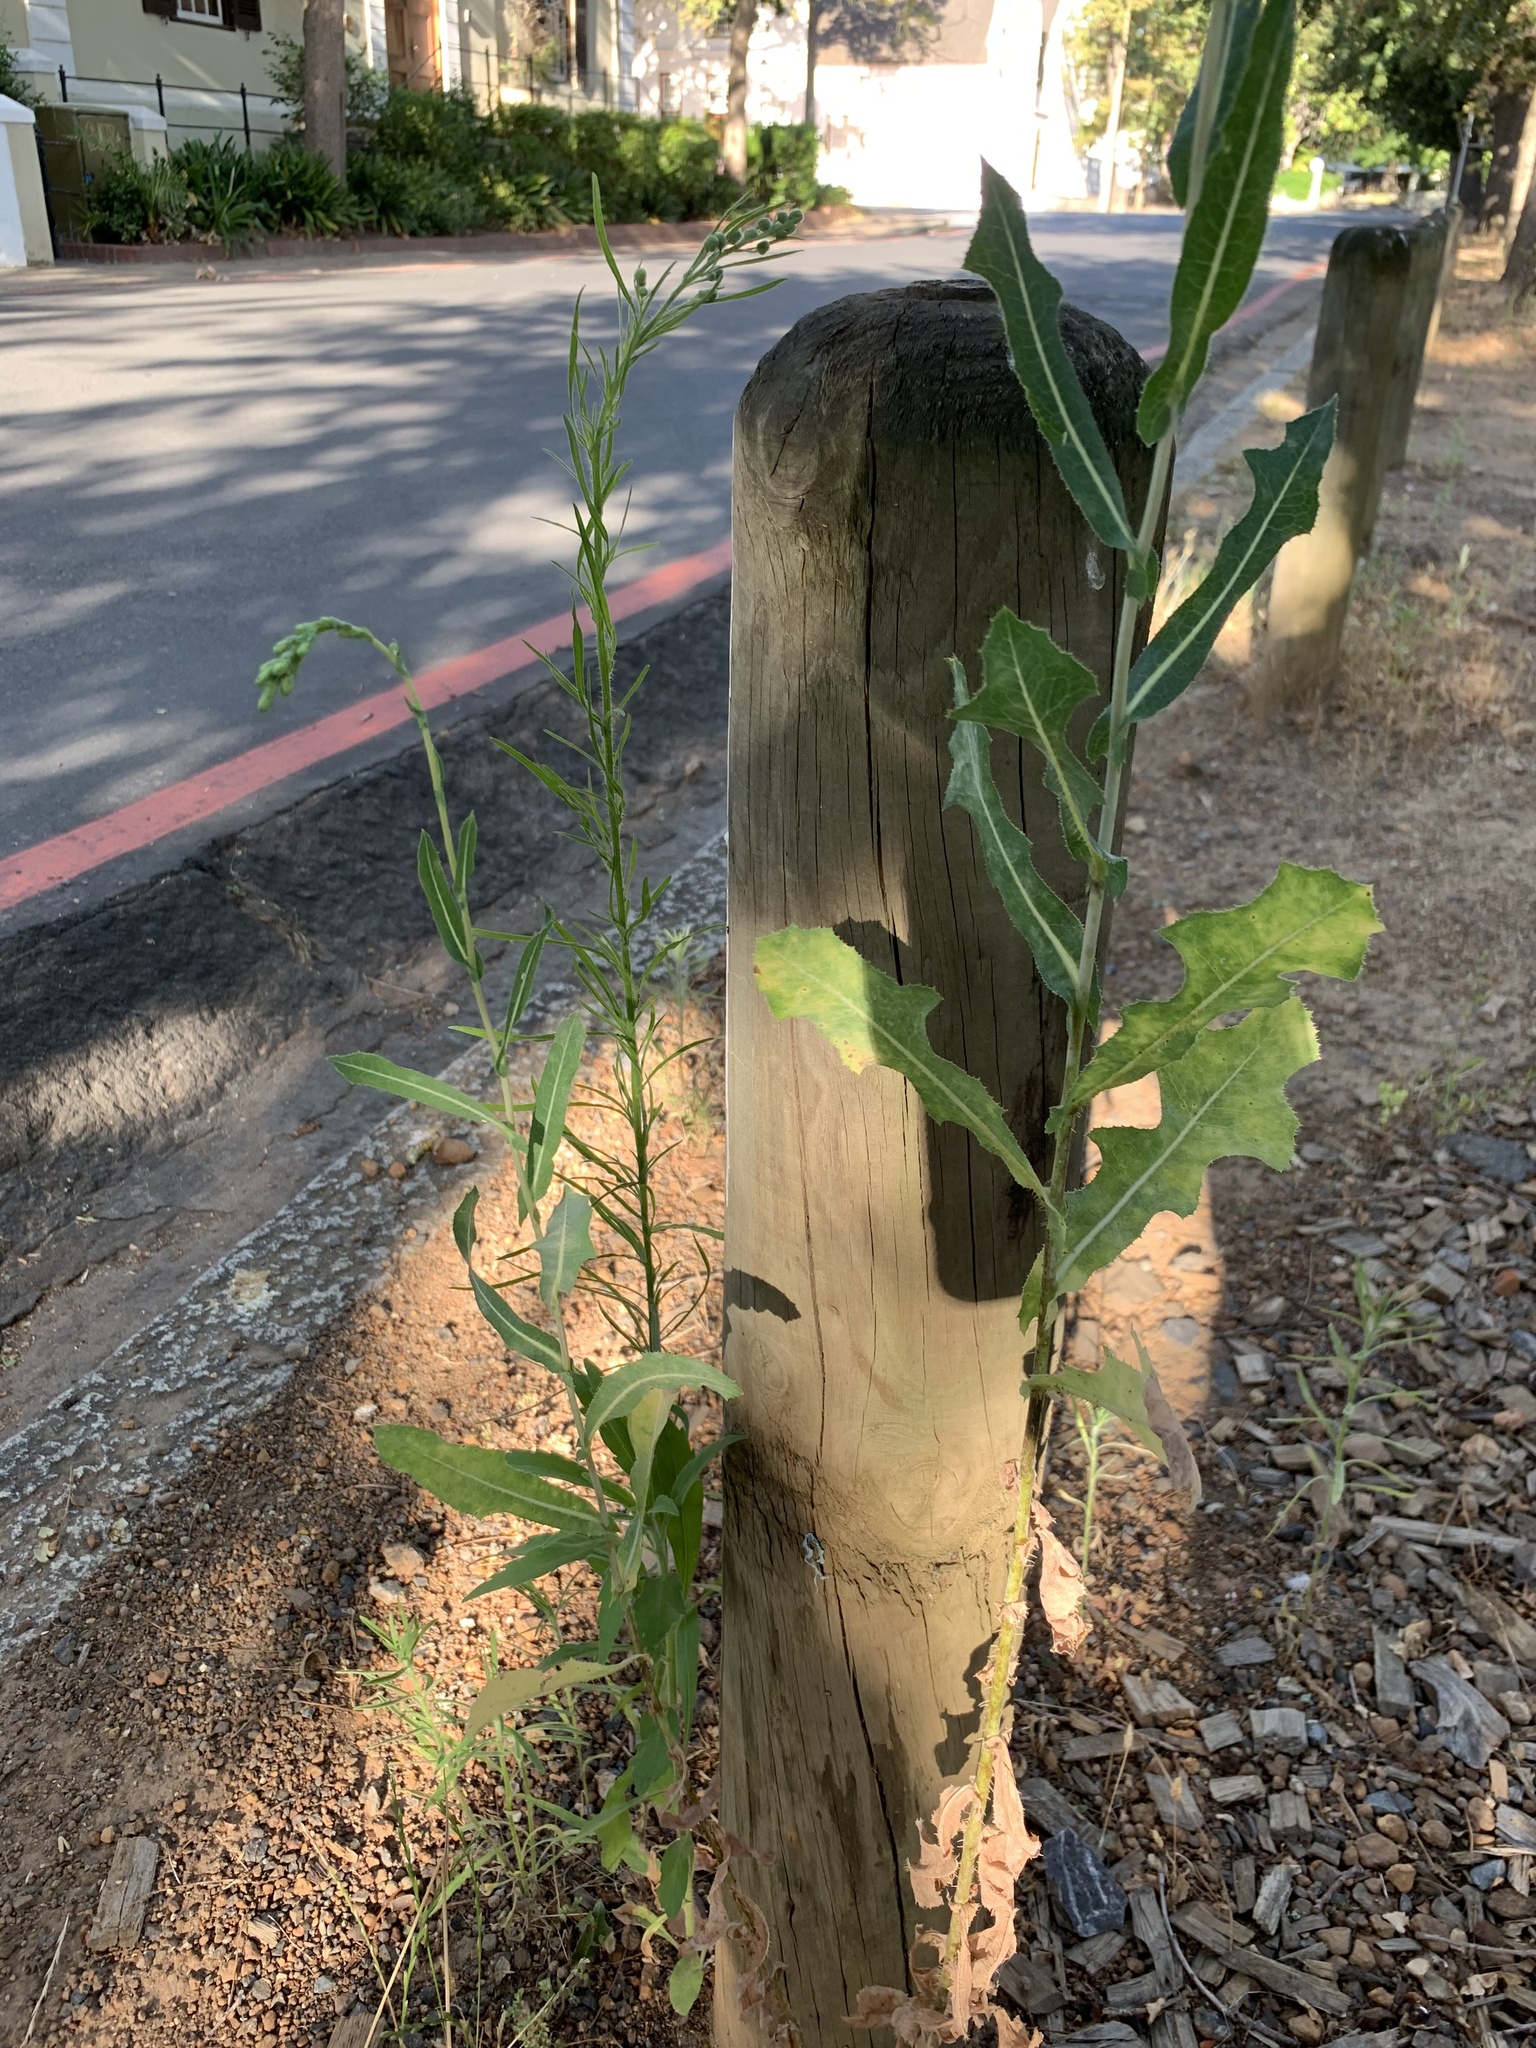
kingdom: Plantae
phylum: Tracheophyta
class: Magnoliopsida
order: Asterales
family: Asteraceae
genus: Lactuca
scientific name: Lactuca serriola
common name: Prickly lettuce
